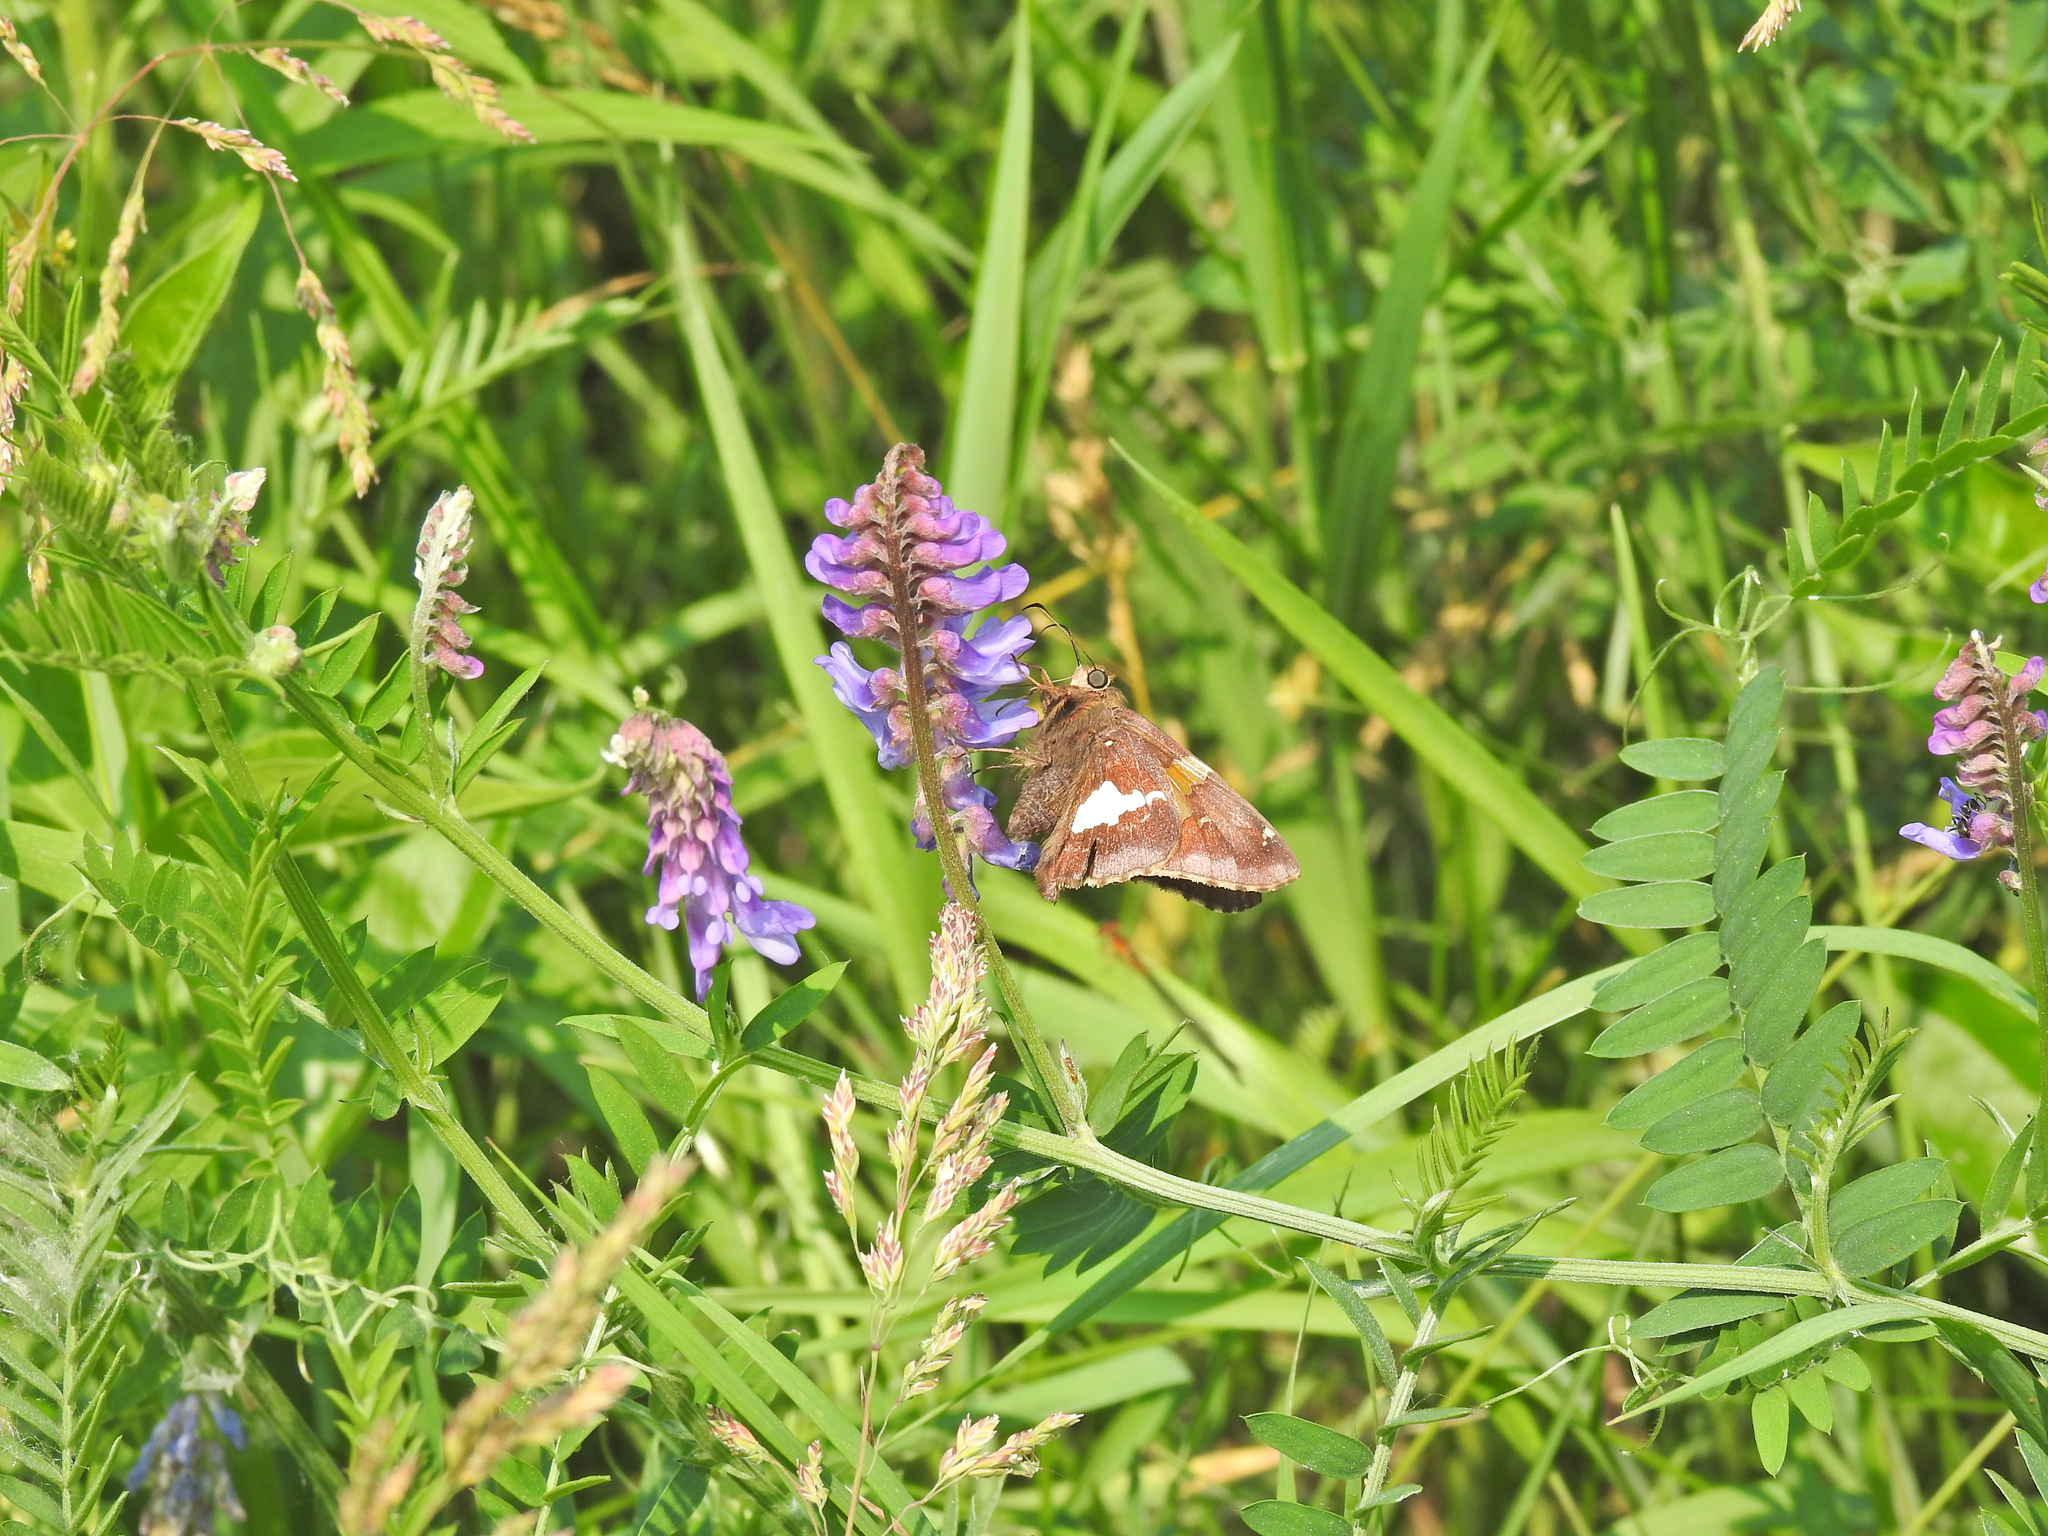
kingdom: Animalia
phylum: Arthropoda
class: Insecta
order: Lepidoptera
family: Hesperiidae
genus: Epargyreus
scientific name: Epargyreus clarus
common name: Silver-spotted skipper
